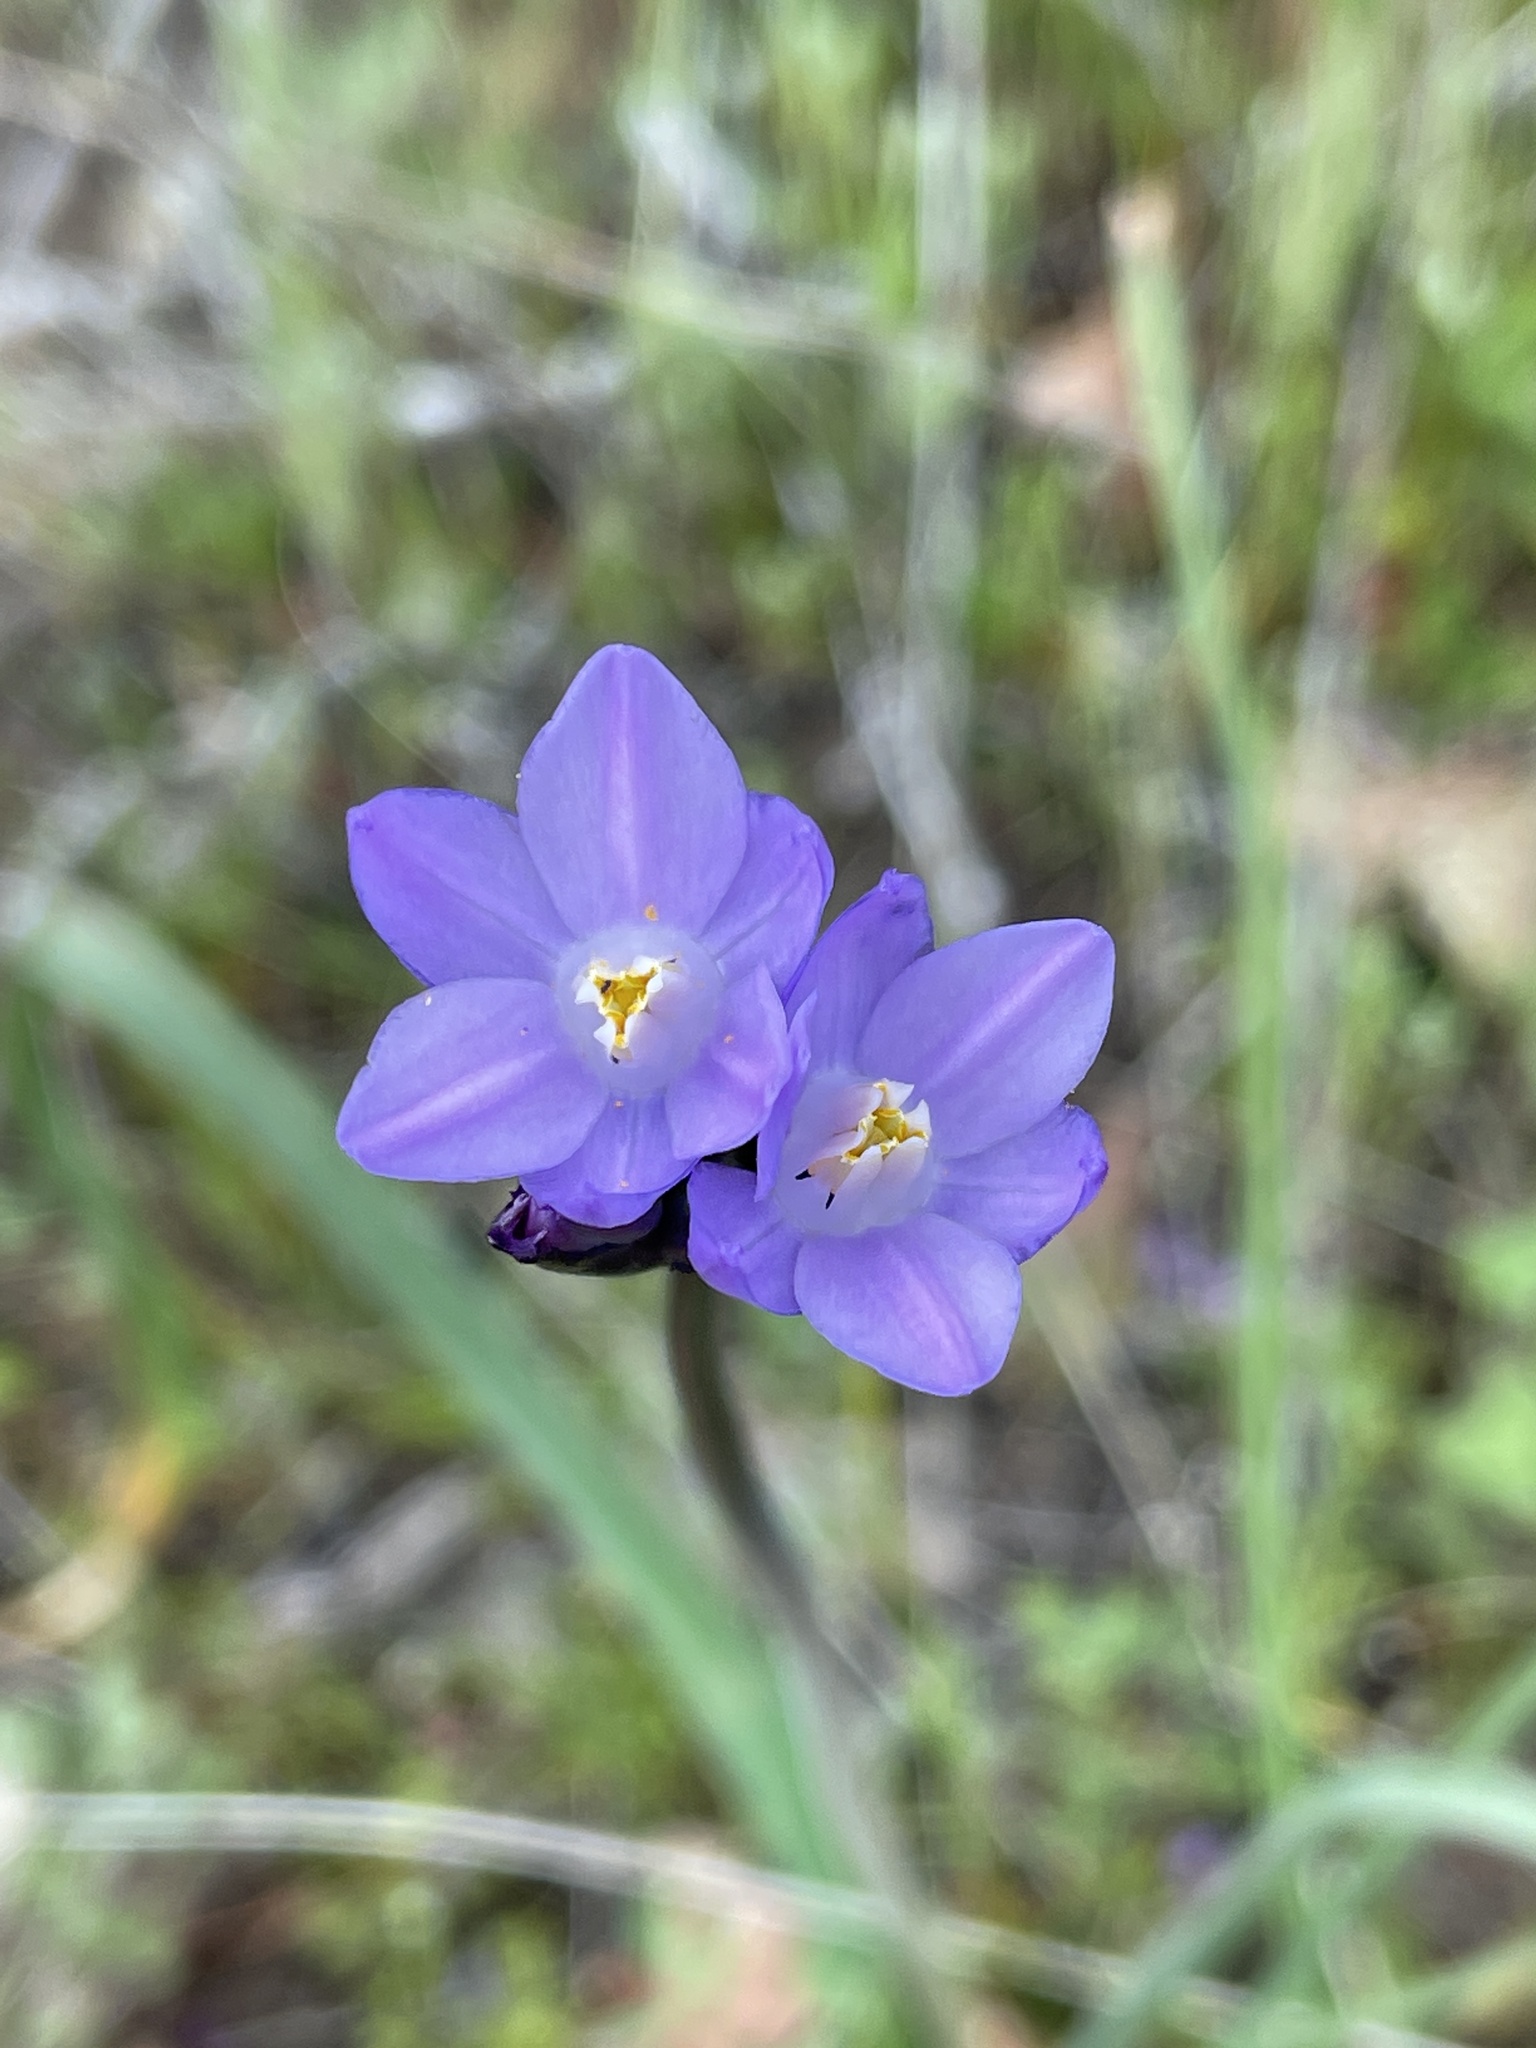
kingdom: Plantae
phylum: Tracheophyta
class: Liliopsida
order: Asparagales
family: Asparagaceae
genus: Dipterostemon
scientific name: Dipterostemon capitatus
